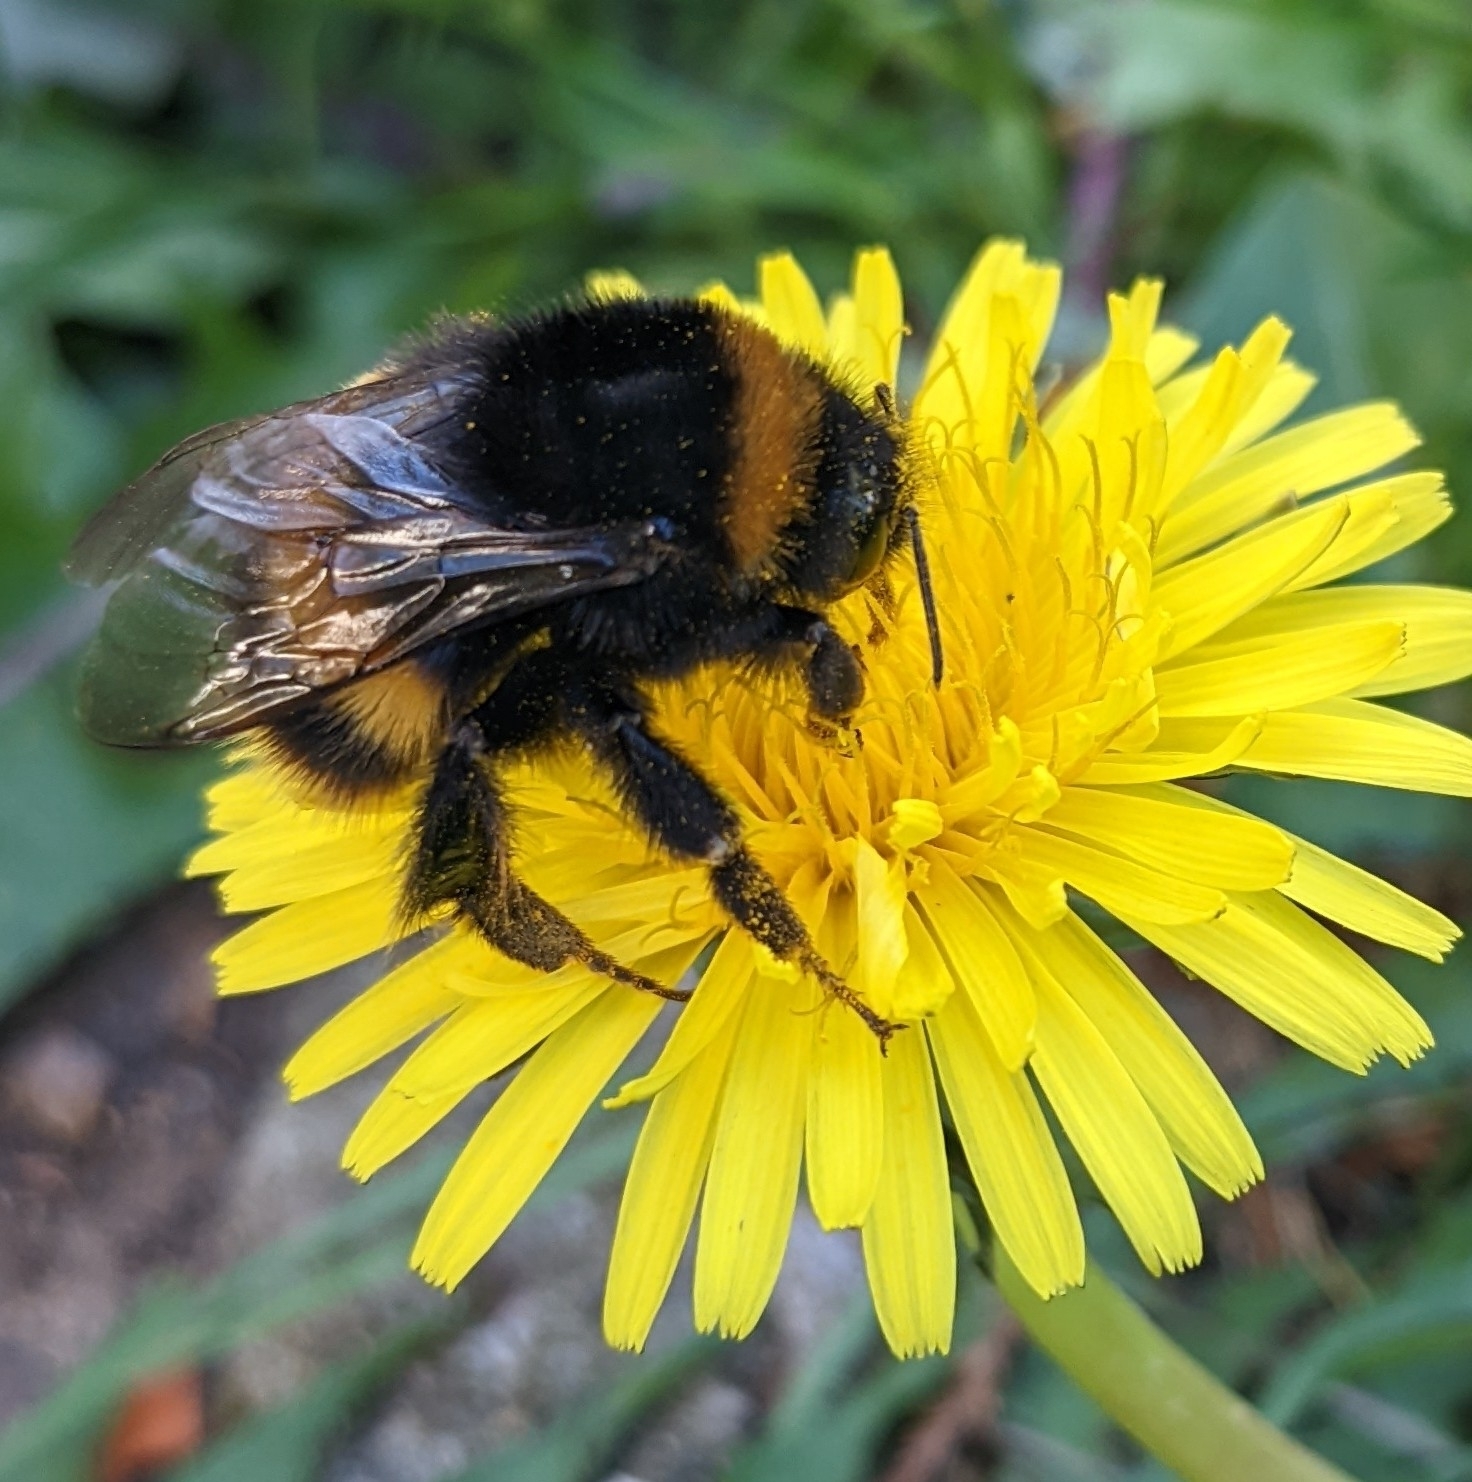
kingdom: Animalia
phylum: Arthropoda
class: Insecta
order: Hymenoptera
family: Apidae
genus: Bombus
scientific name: Bombus terrestris
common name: Buff-tailed bumblebee
